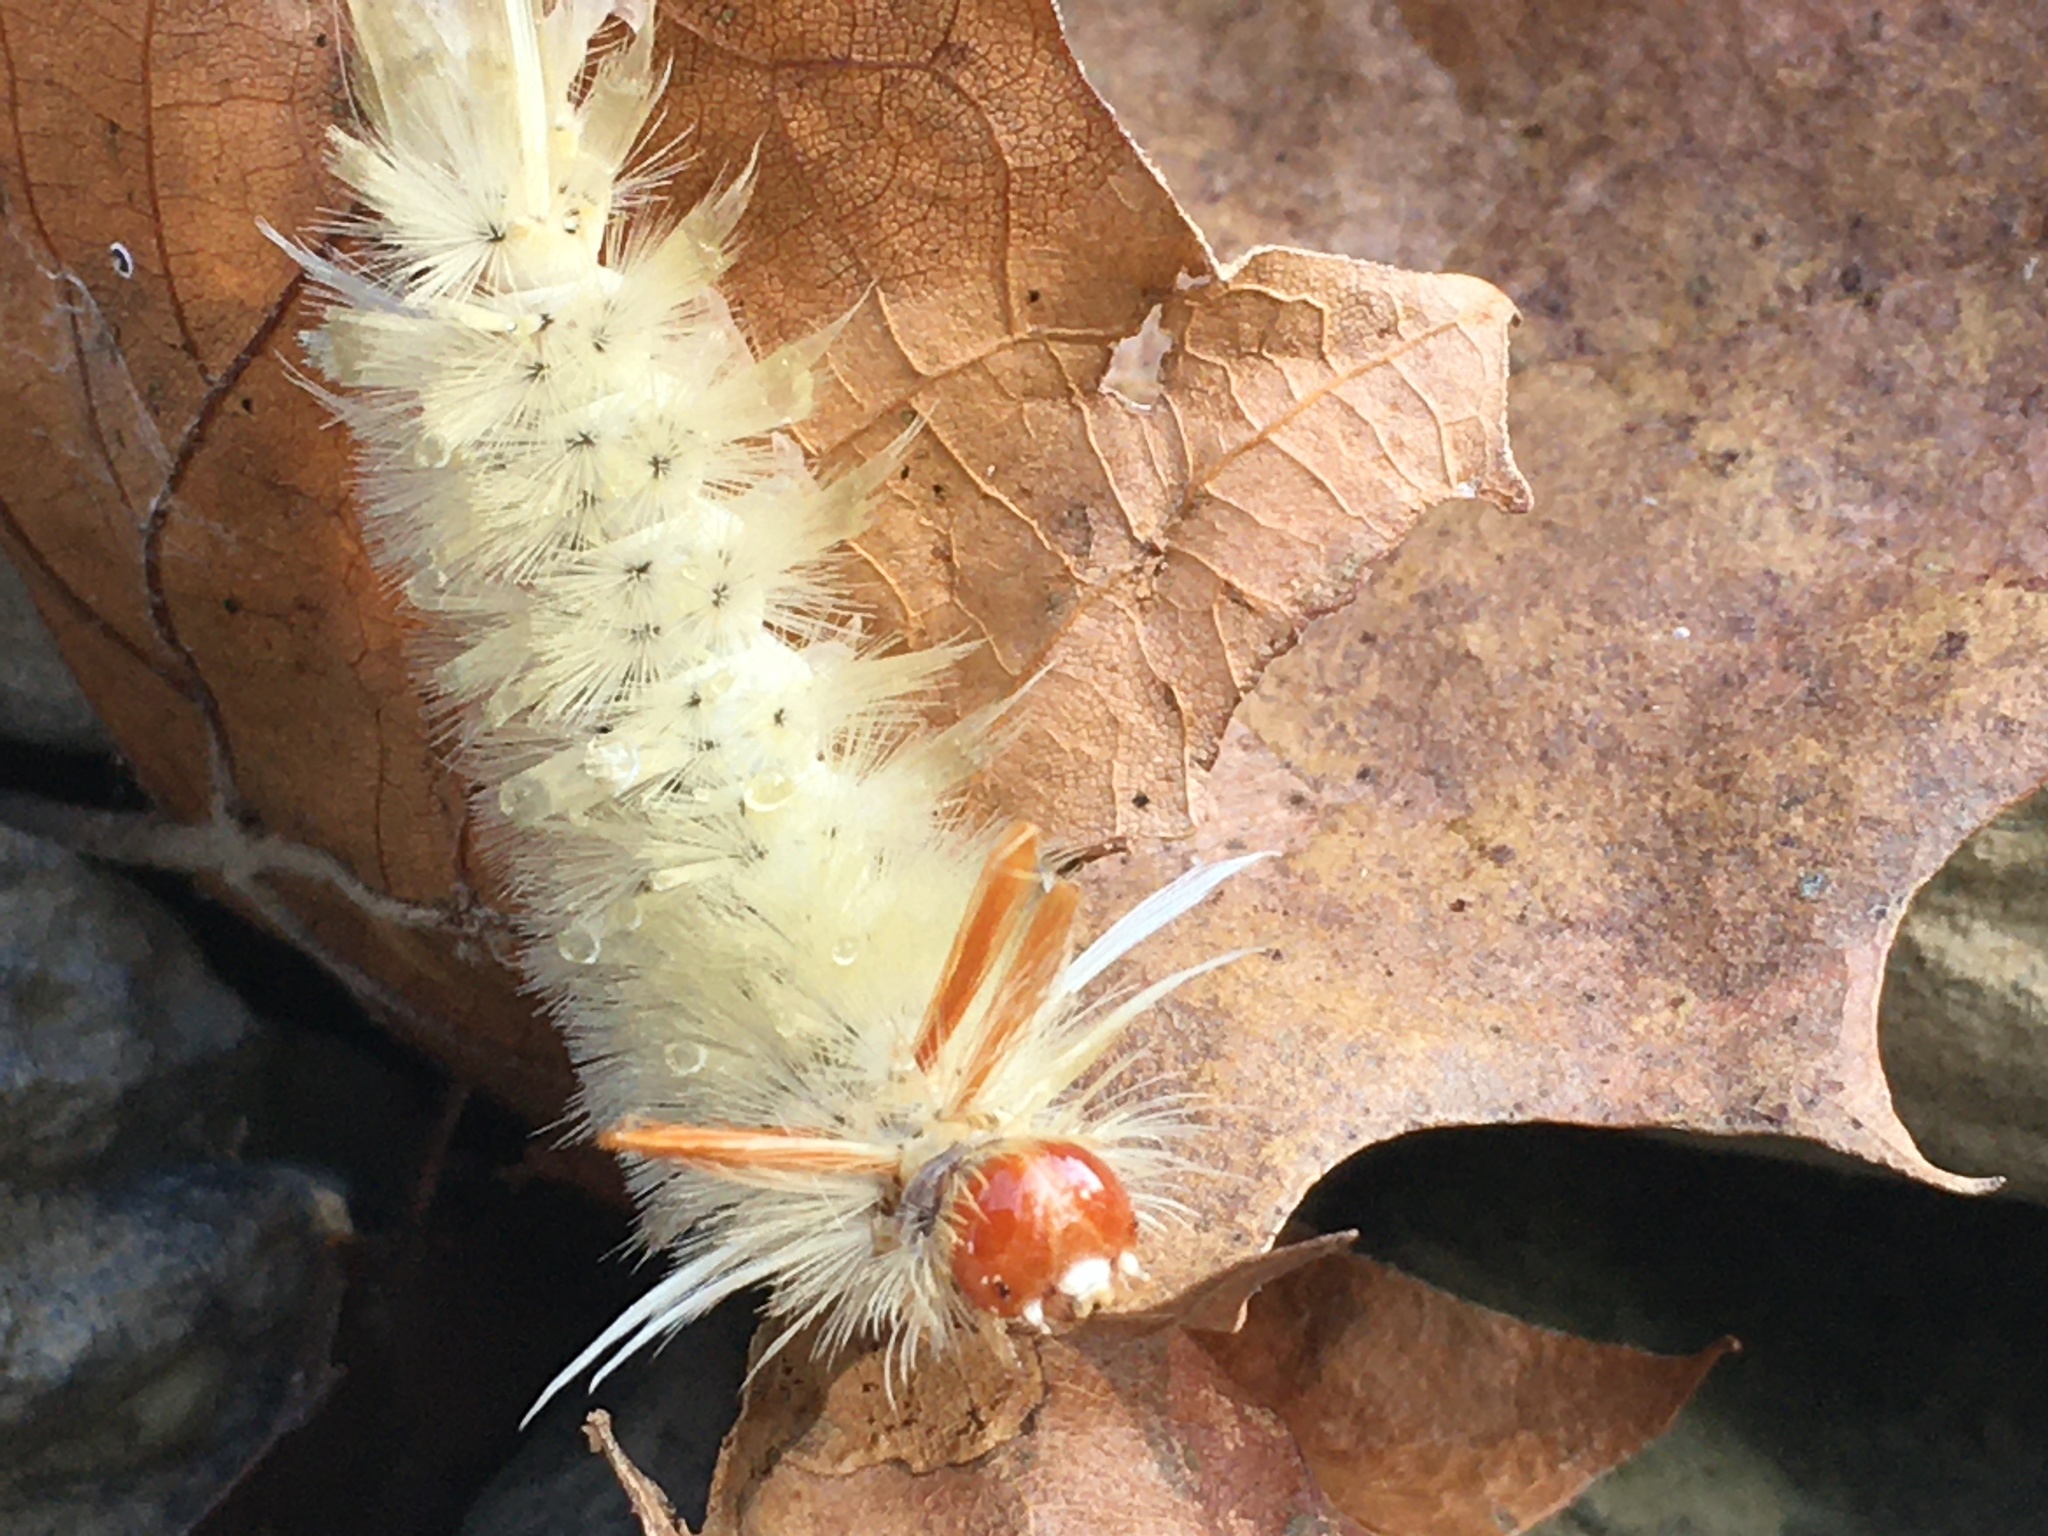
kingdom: Animalia
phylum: Arthropoda
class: Insecta
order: Lepidoptera
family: Erebidae
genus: Halysidota
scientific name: Halysidota harrisii
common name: Sycamore tussock moth
